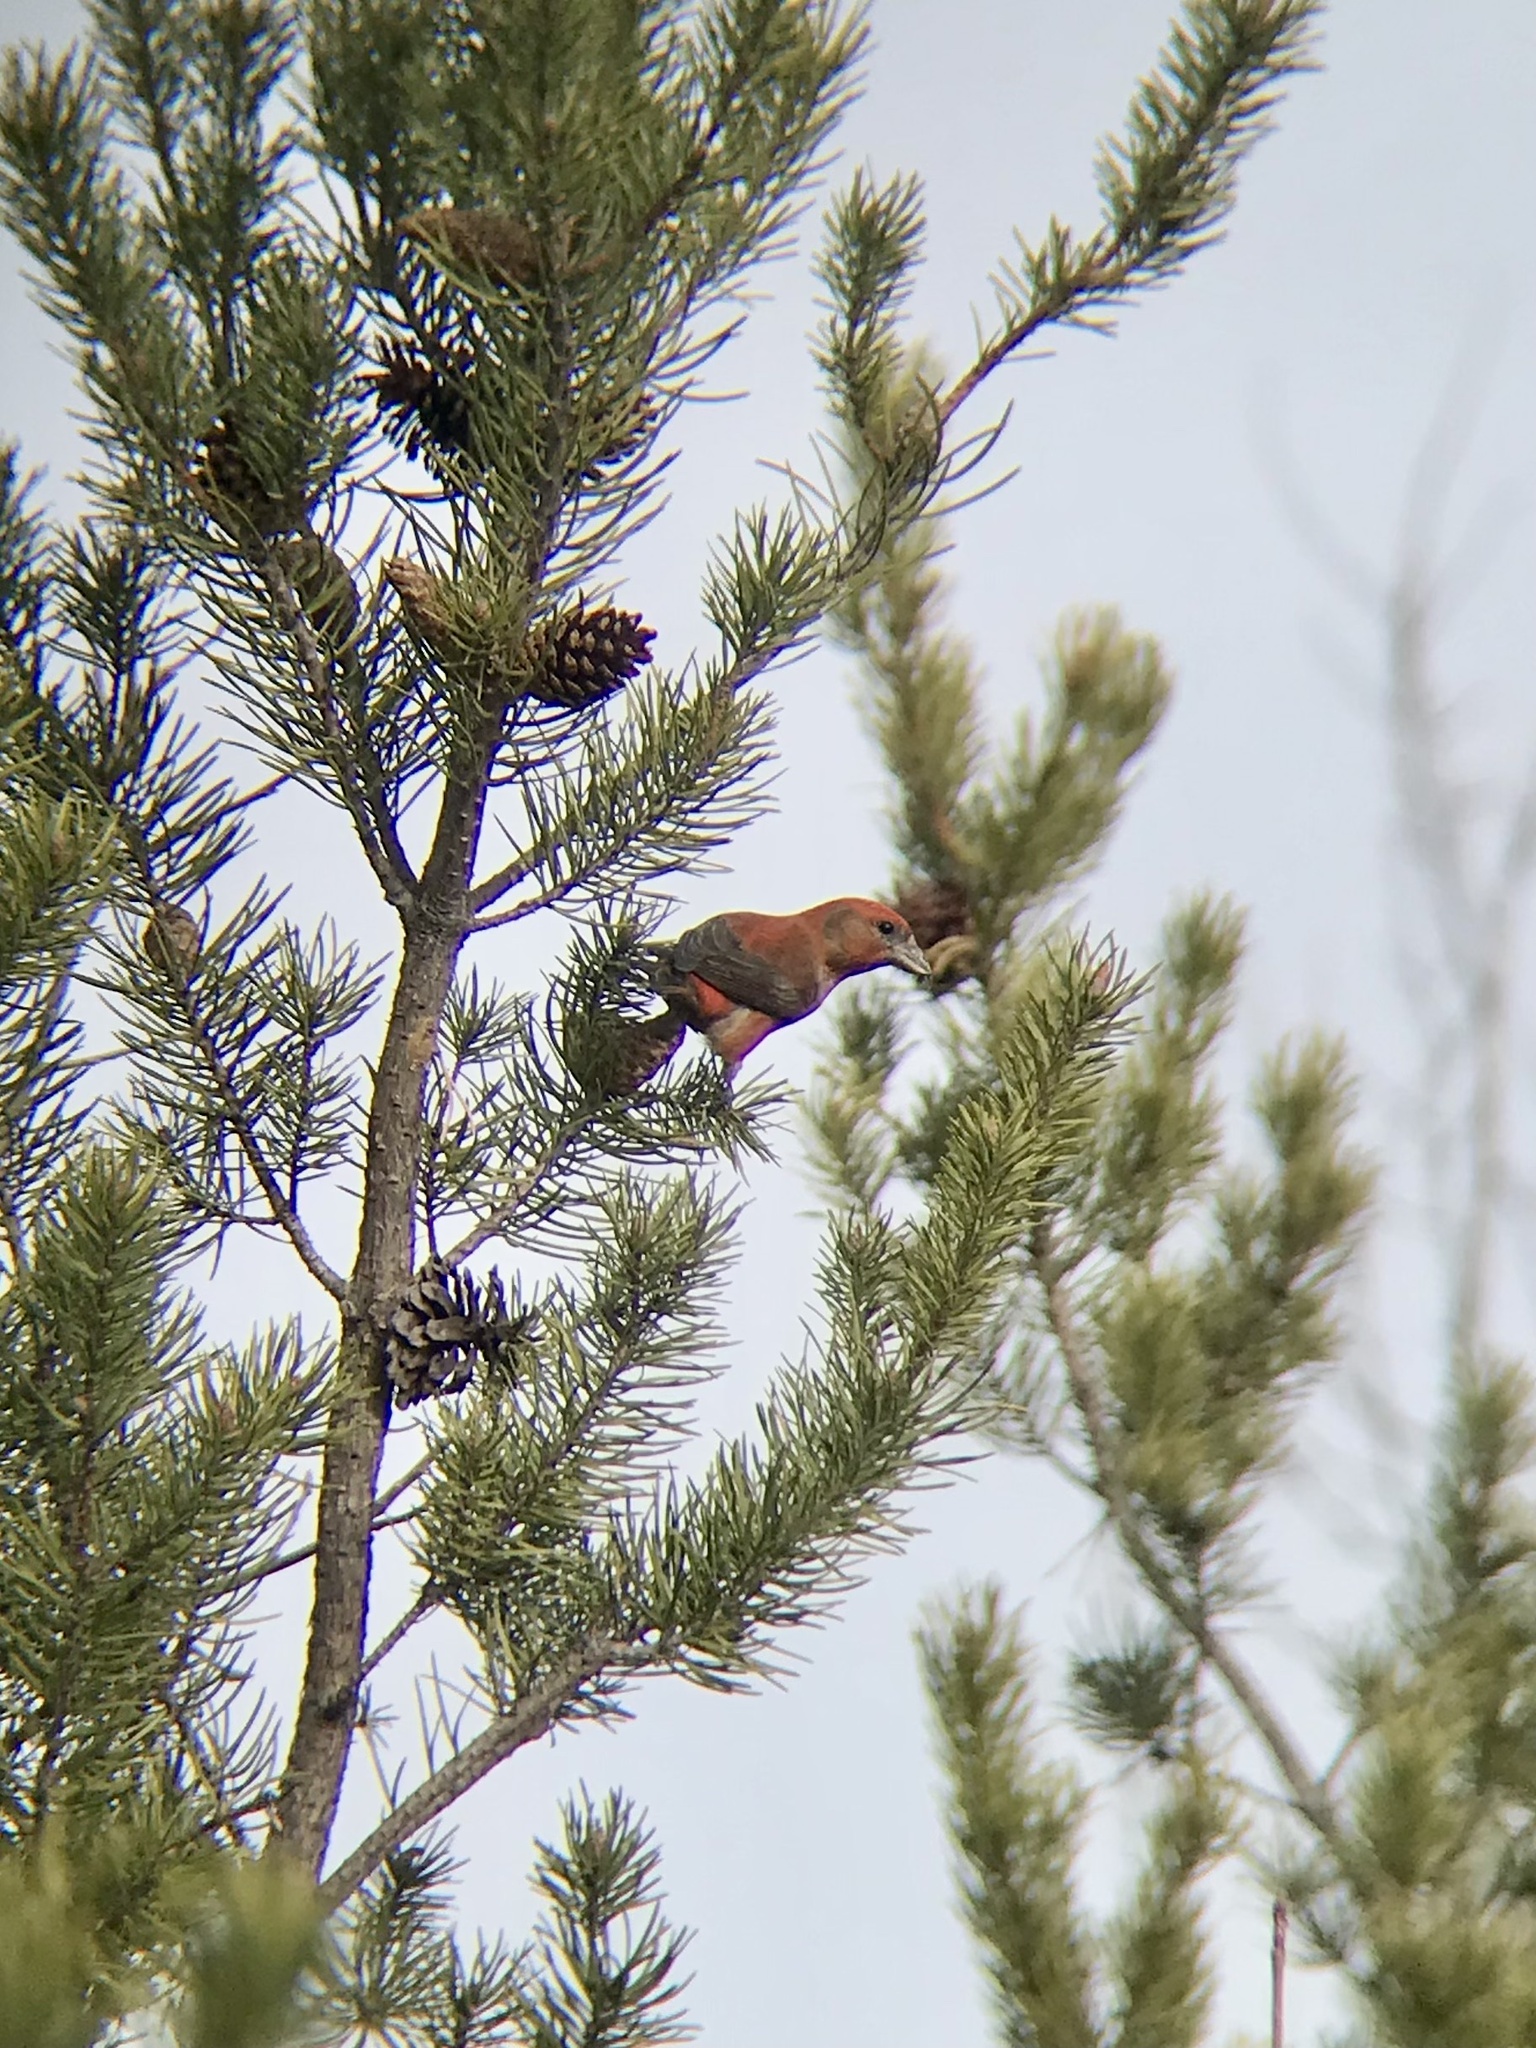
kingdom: Animalia
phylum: Chordata
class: Aves
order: Passeriformes
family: Fringillidae
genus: Loxia
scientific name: Loxia curvirostra
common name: Red crossbill
